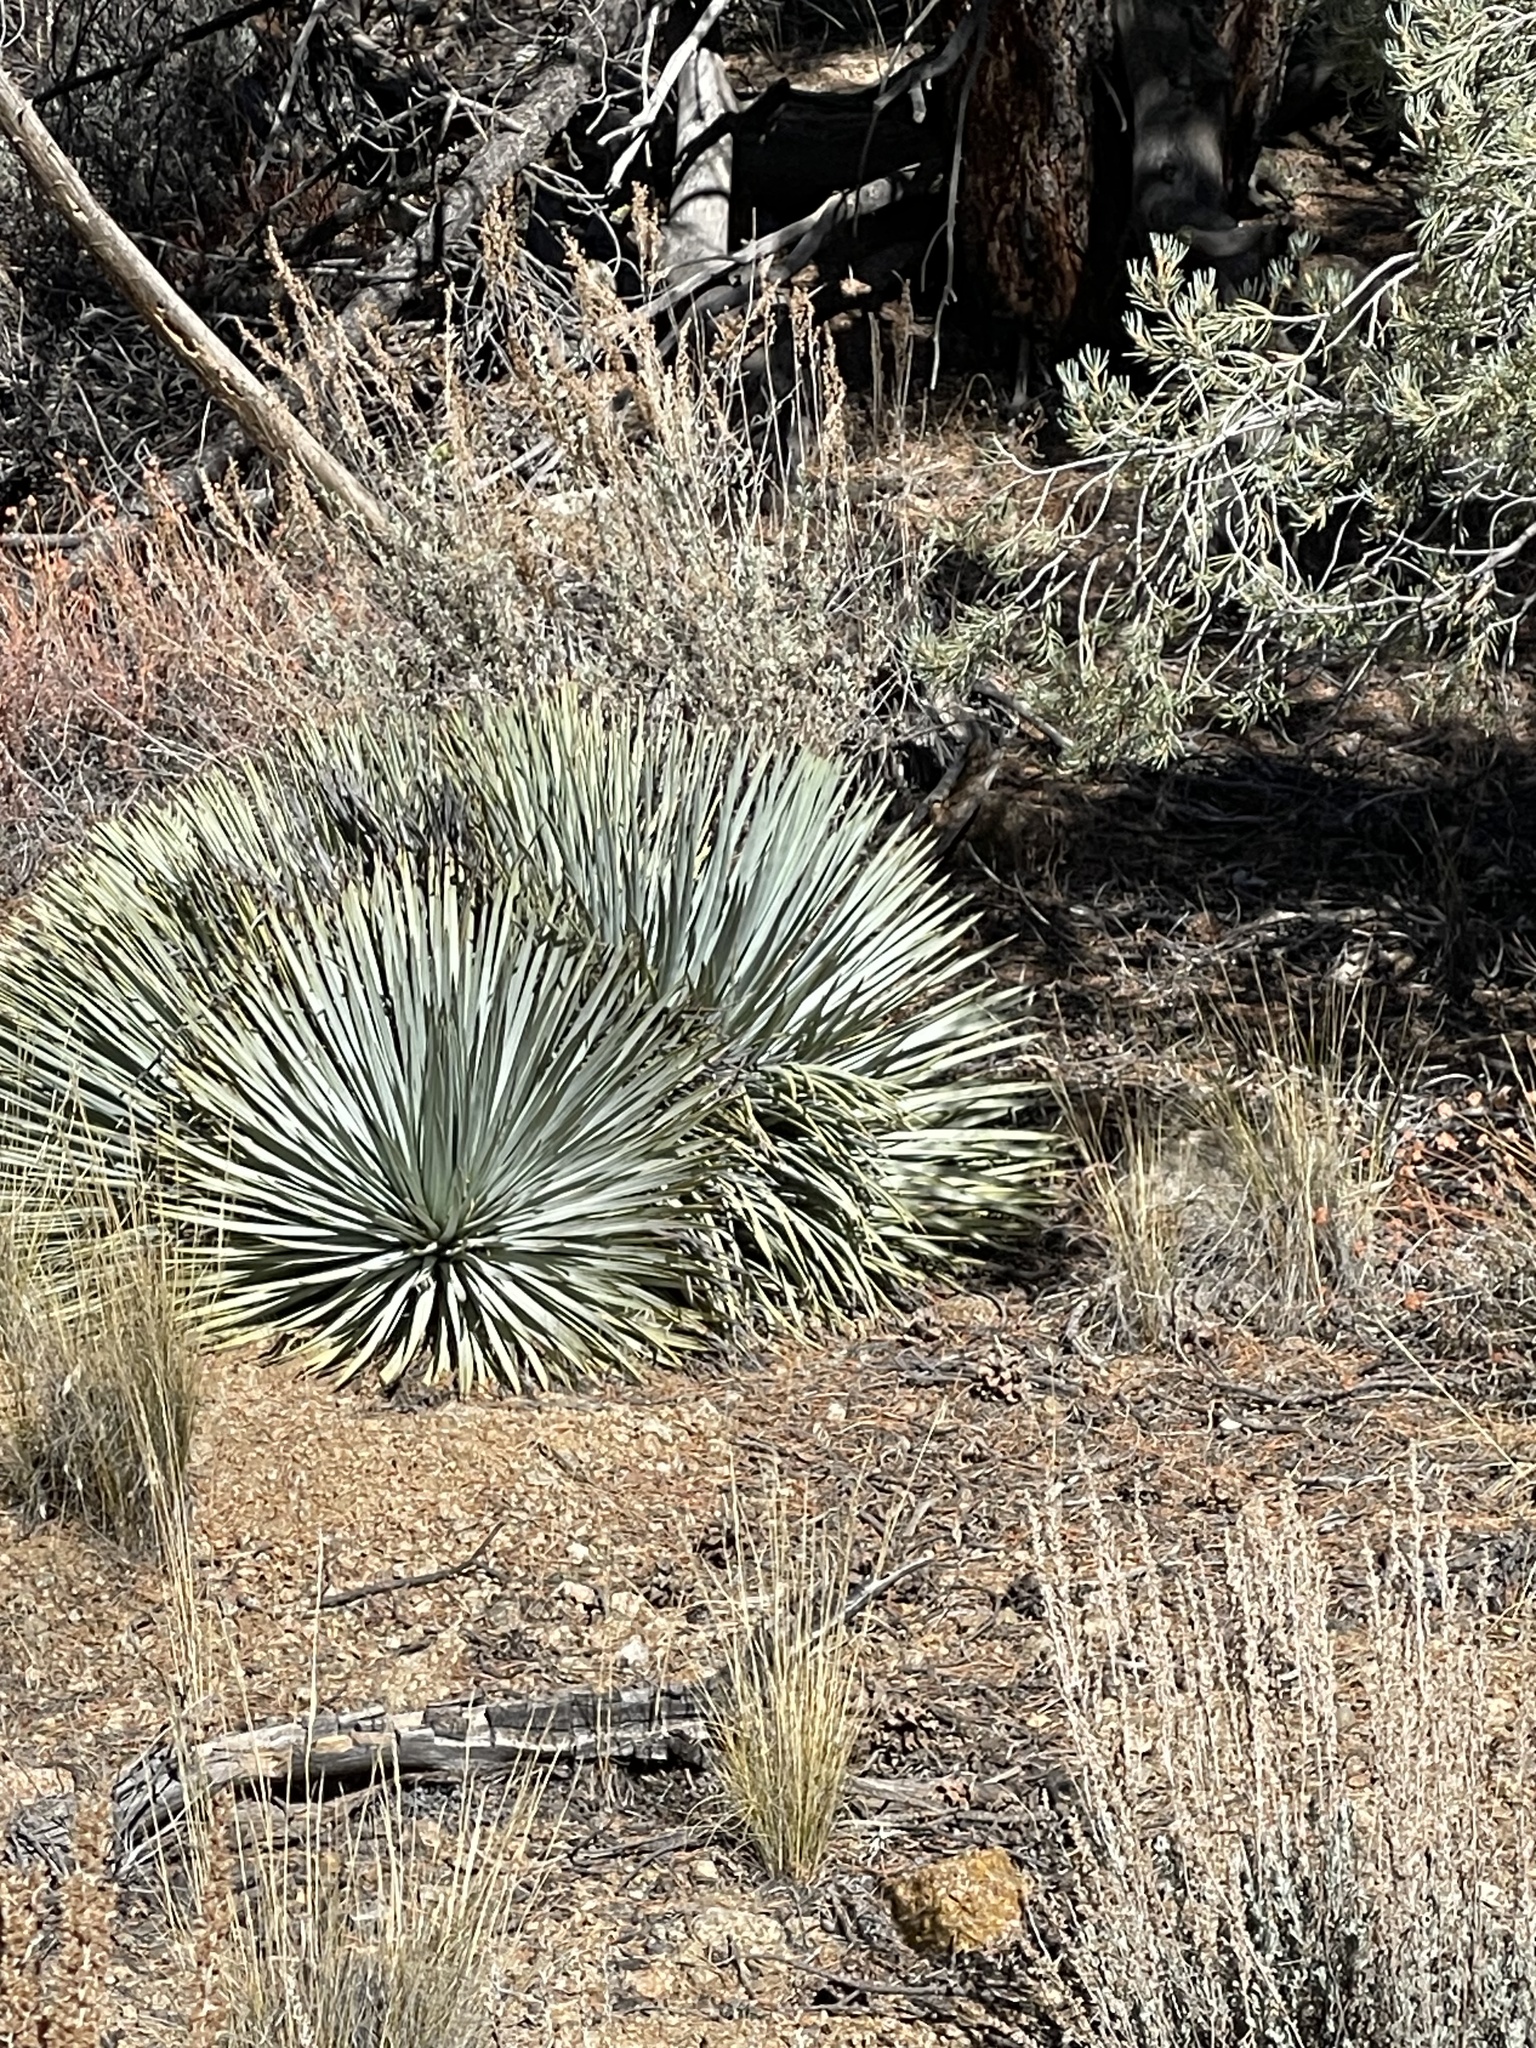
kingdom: Plantae
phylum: Tracheophyta
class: Liliopsida
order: Asparagales
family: Asparagaceae
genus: Hesperoyucca
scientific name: Hesperoyucca whipplei
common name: Our lord's-candle
